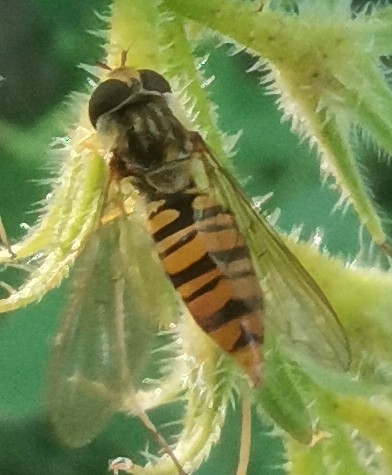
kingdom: Animalia
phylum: Arthropoda
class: Insecta
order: Diptera
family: Syrphidae
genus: Episyrphus
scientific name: Episyrphus balteatus
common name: Marmalade hoverfly
